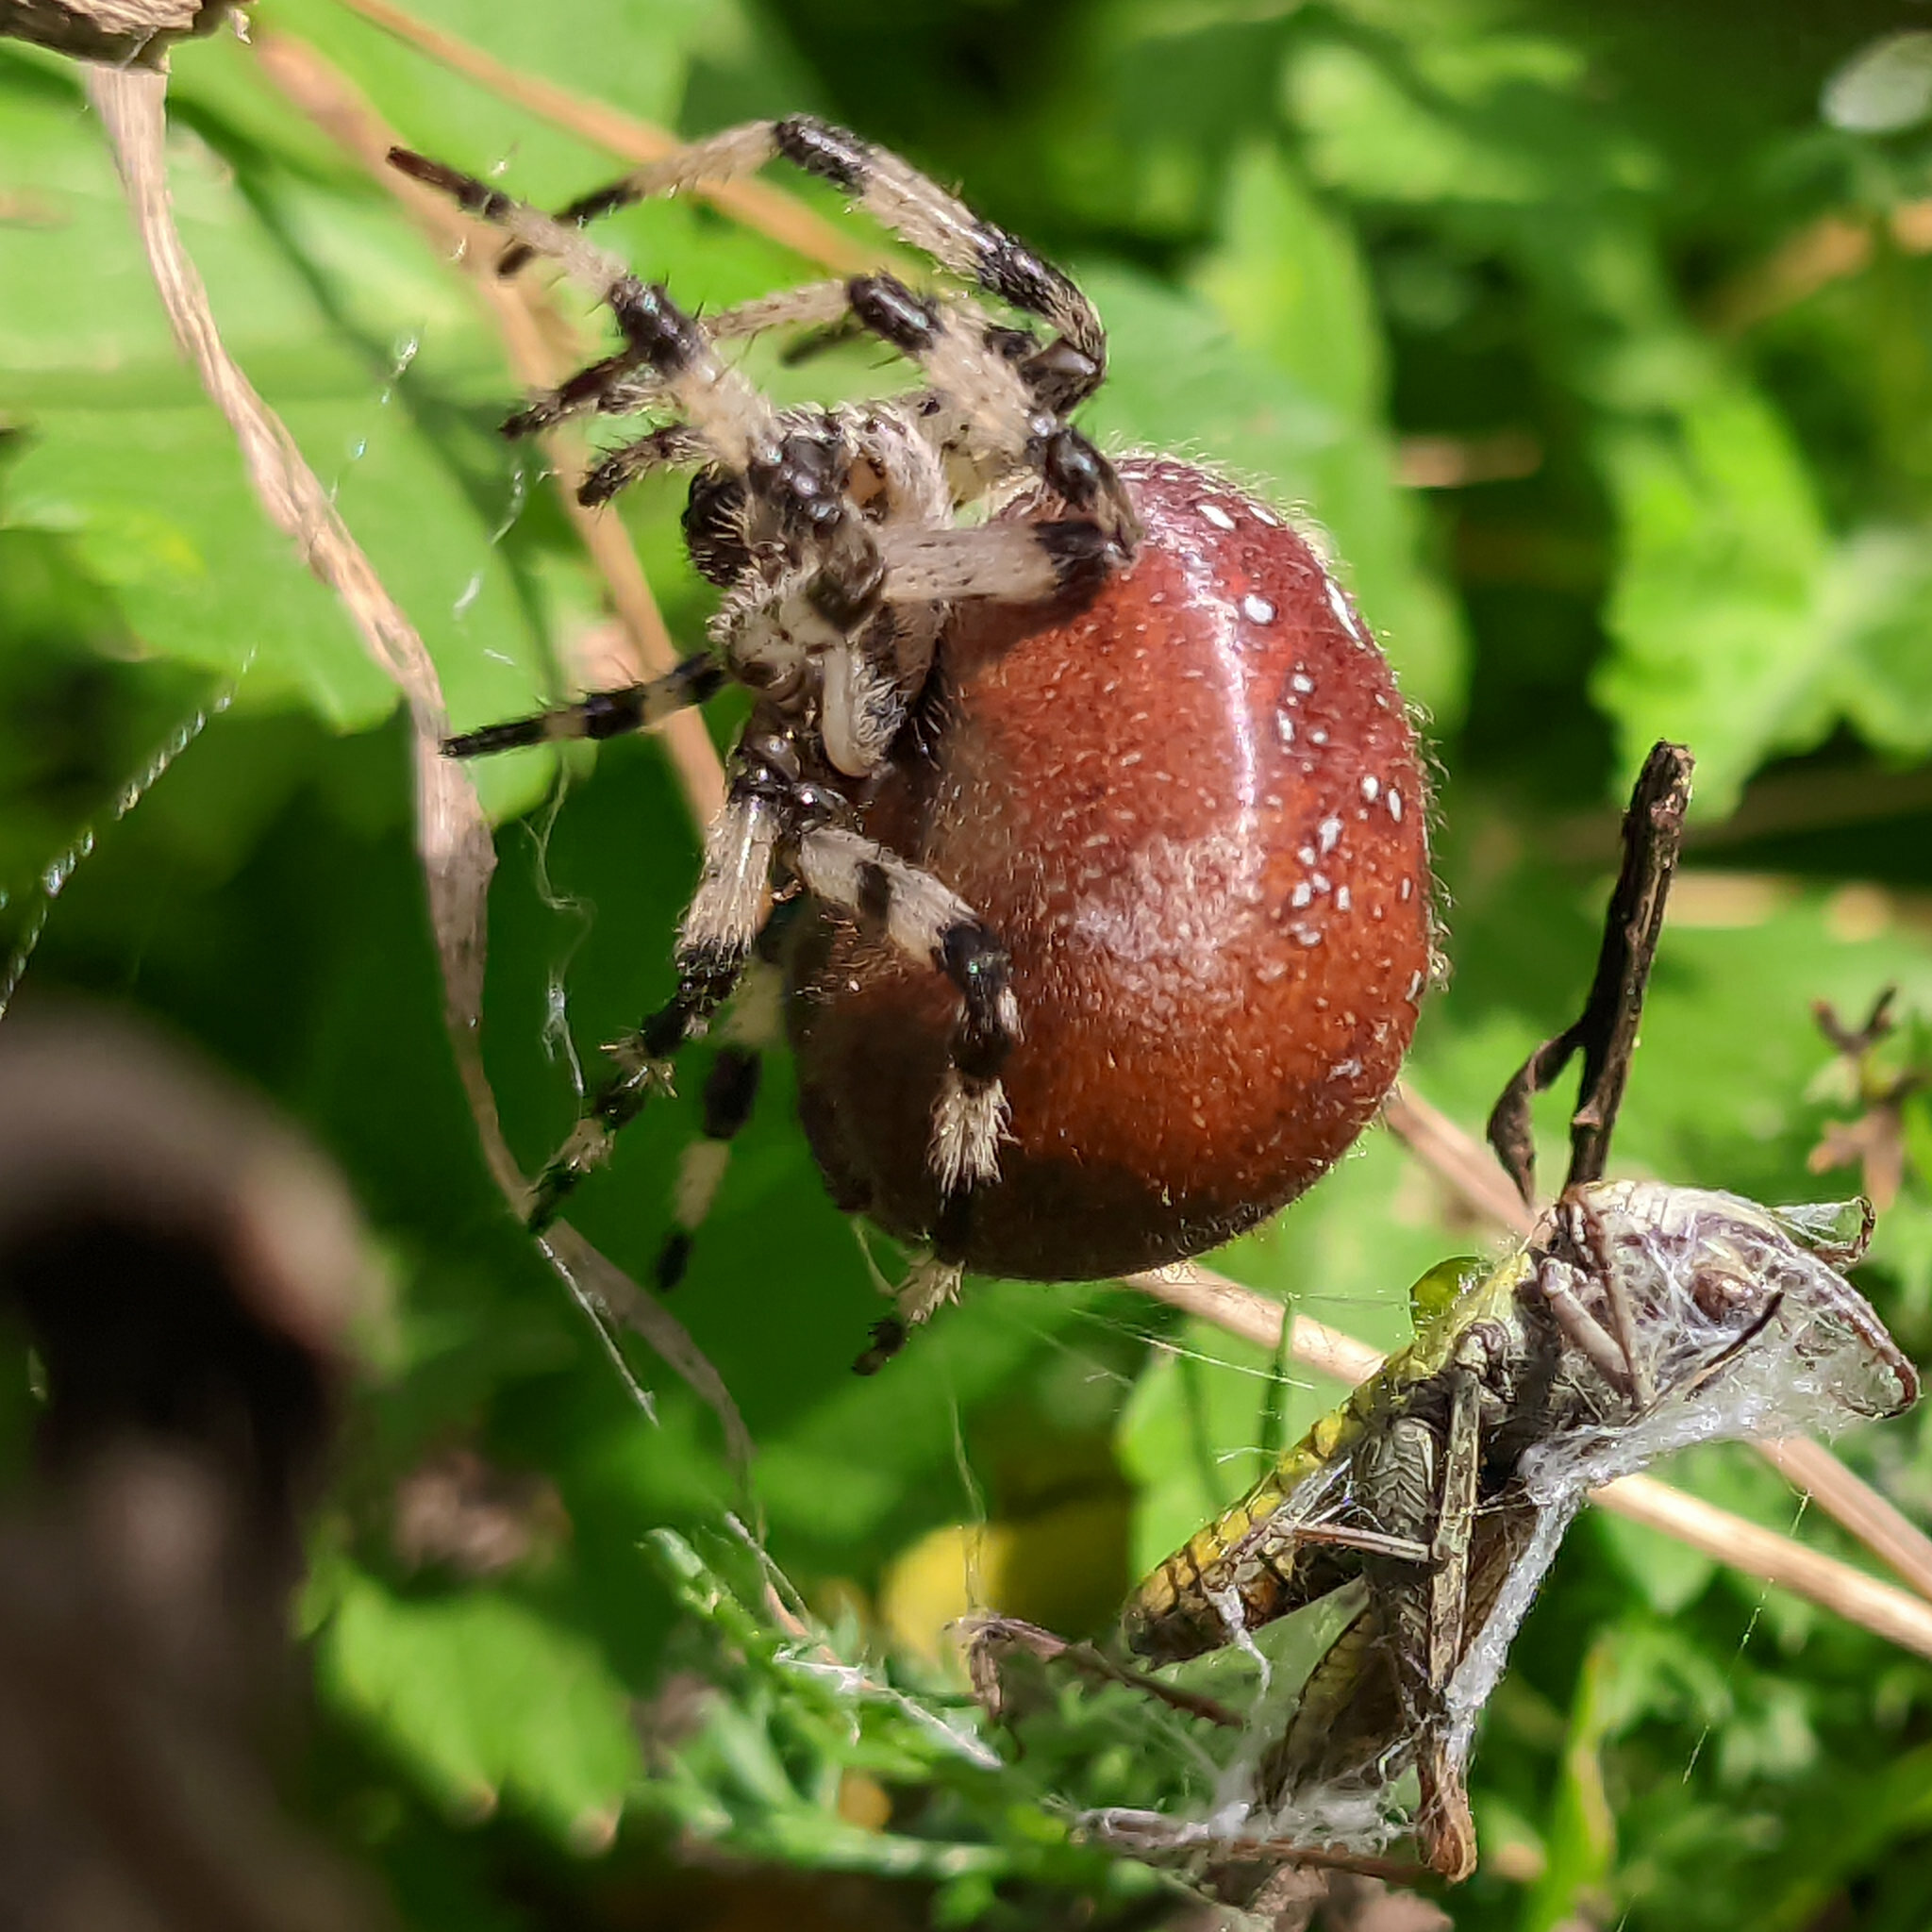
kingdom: Animalia
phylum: Arthropoda
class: Arachnida
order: Araneae
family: Araneidae
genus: Araneus
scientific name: Araneus quadratus
